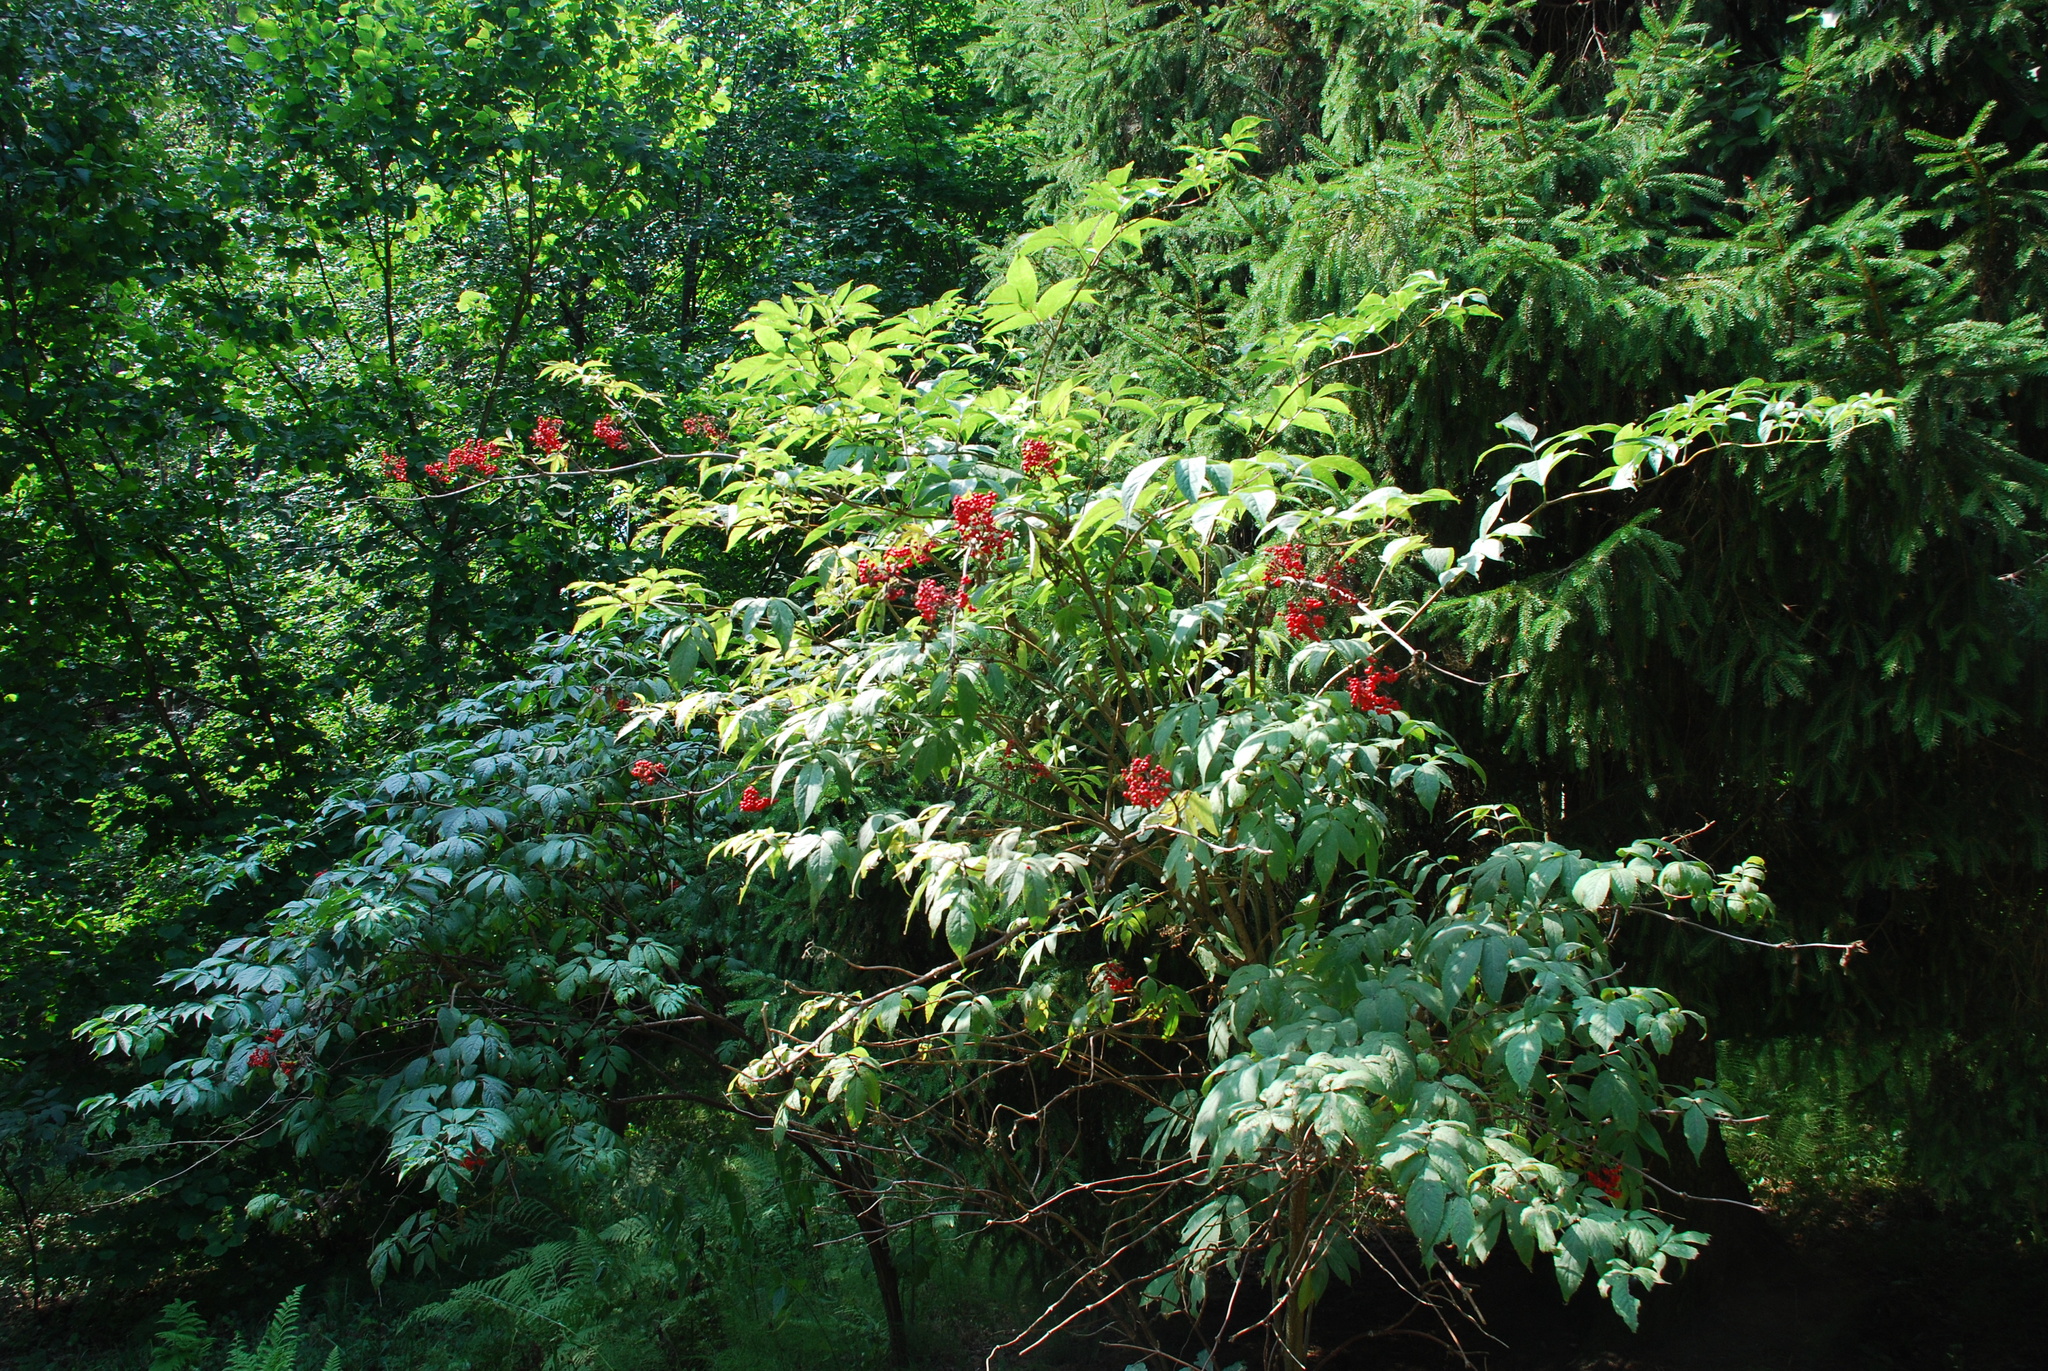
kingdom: Plantae
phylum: Tracheophyta
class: Magnoliopsida
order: Dipsacales
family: Viburnaceae
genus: Sambucus
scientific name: Sambucus racemosa
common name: Red-berried elder
